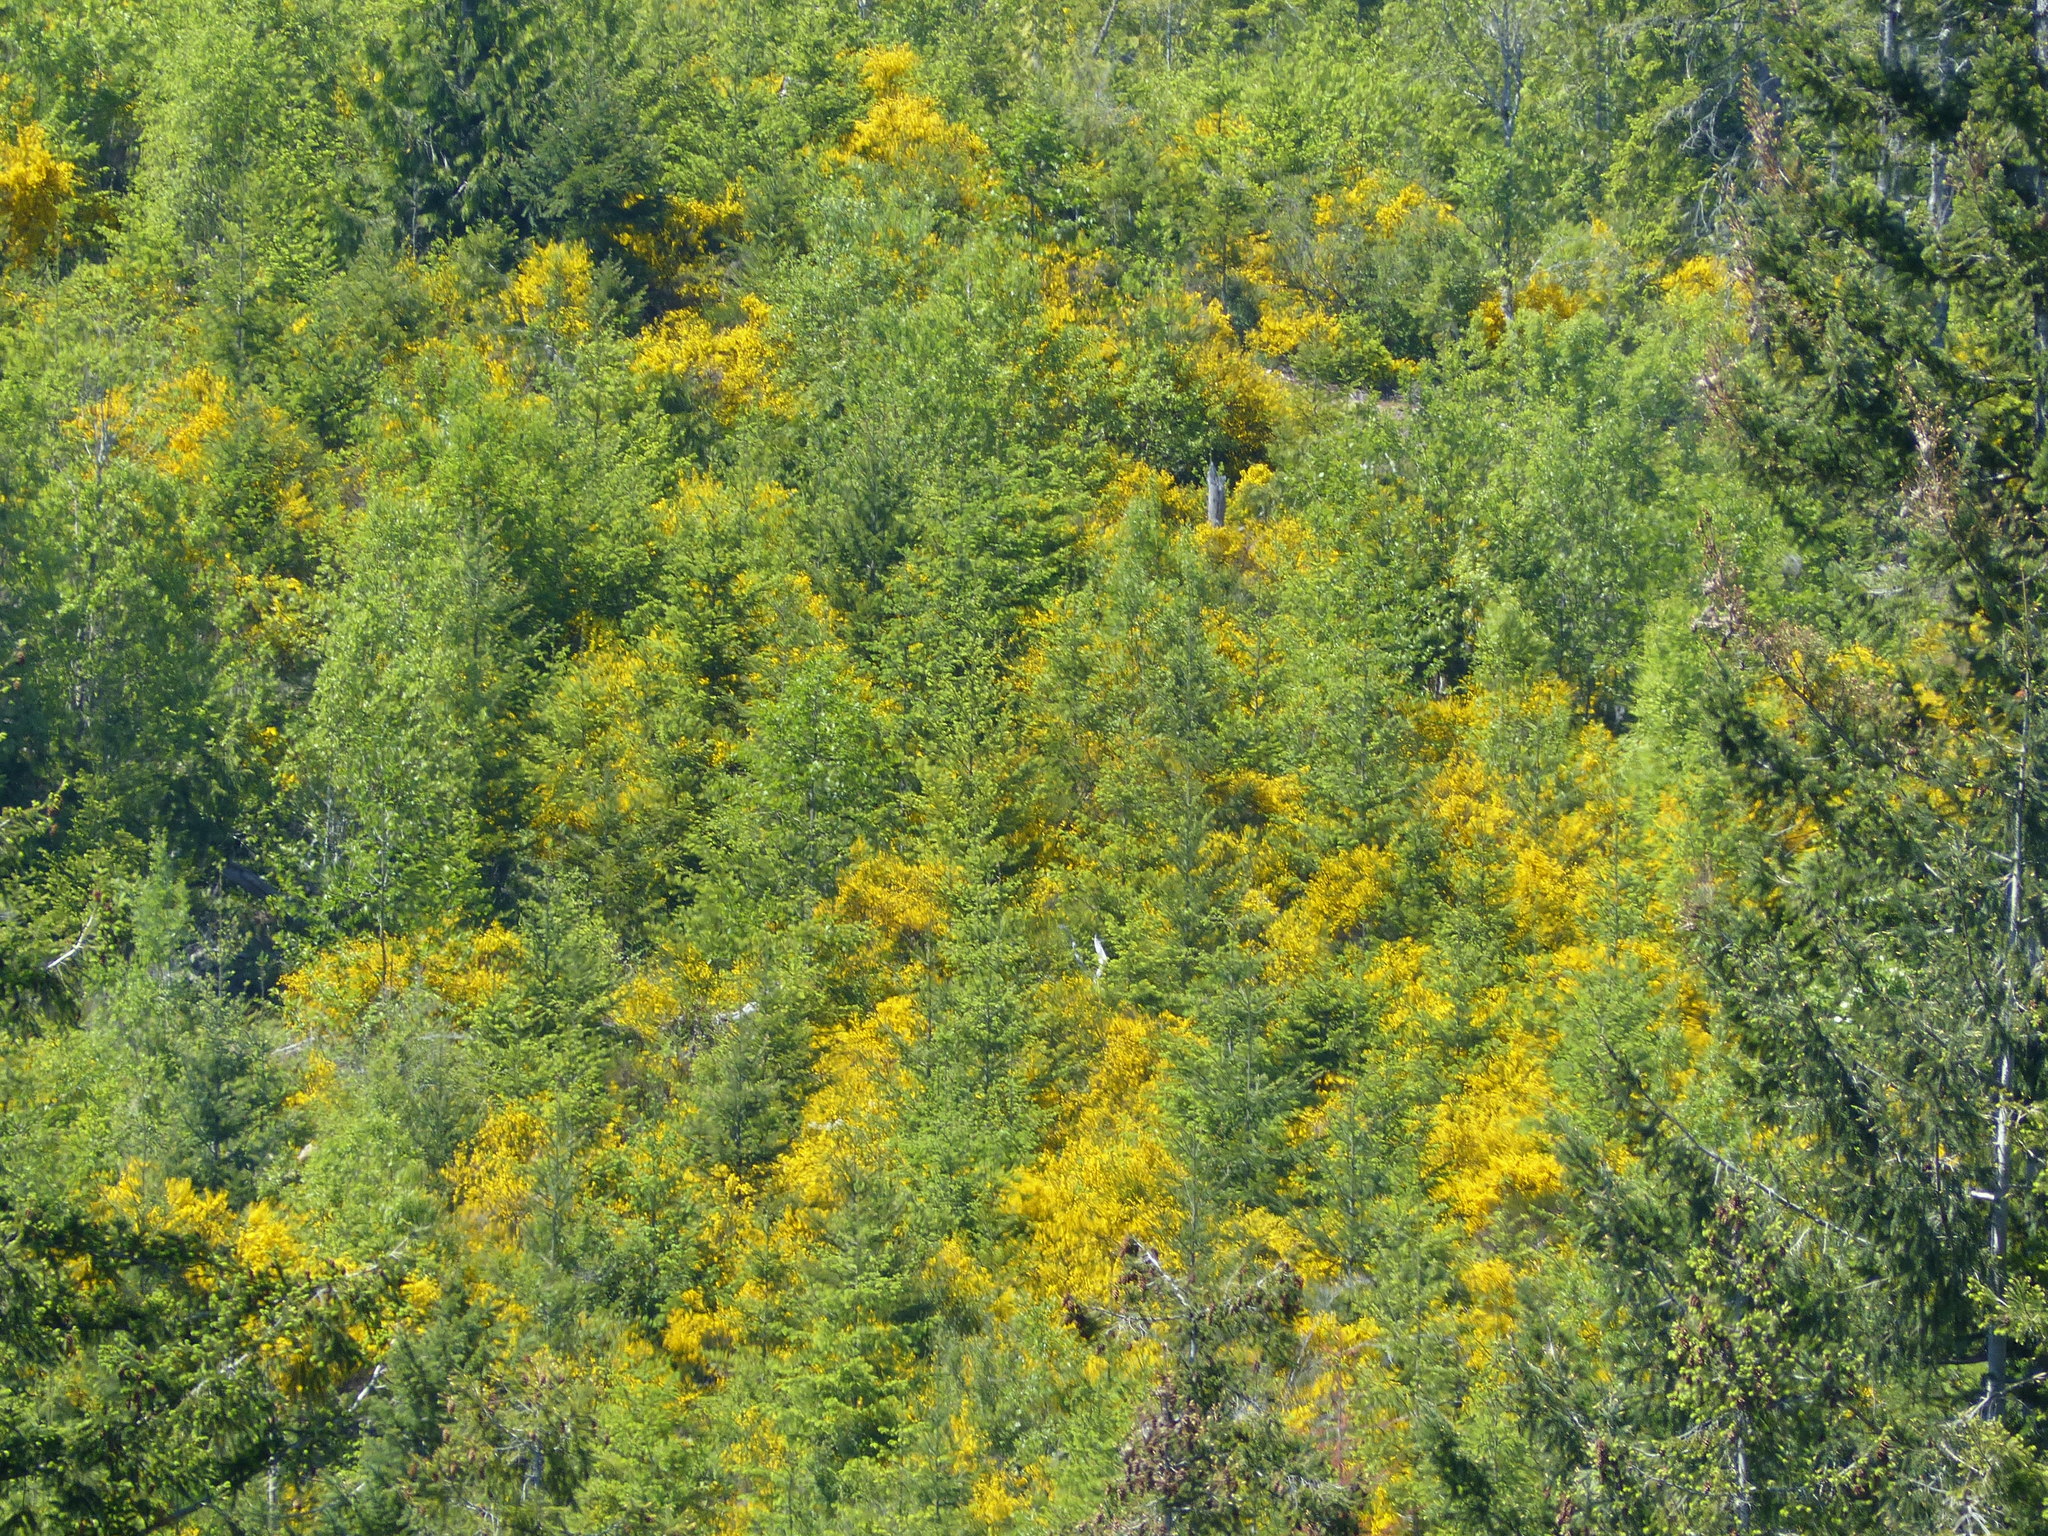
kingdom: Plantae
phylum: Tracheophyta
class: Magnoliopsida
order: Fabales
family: Fabaceae
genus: Cytisus
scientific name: Cytisus scoparius
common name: Scotch broom
